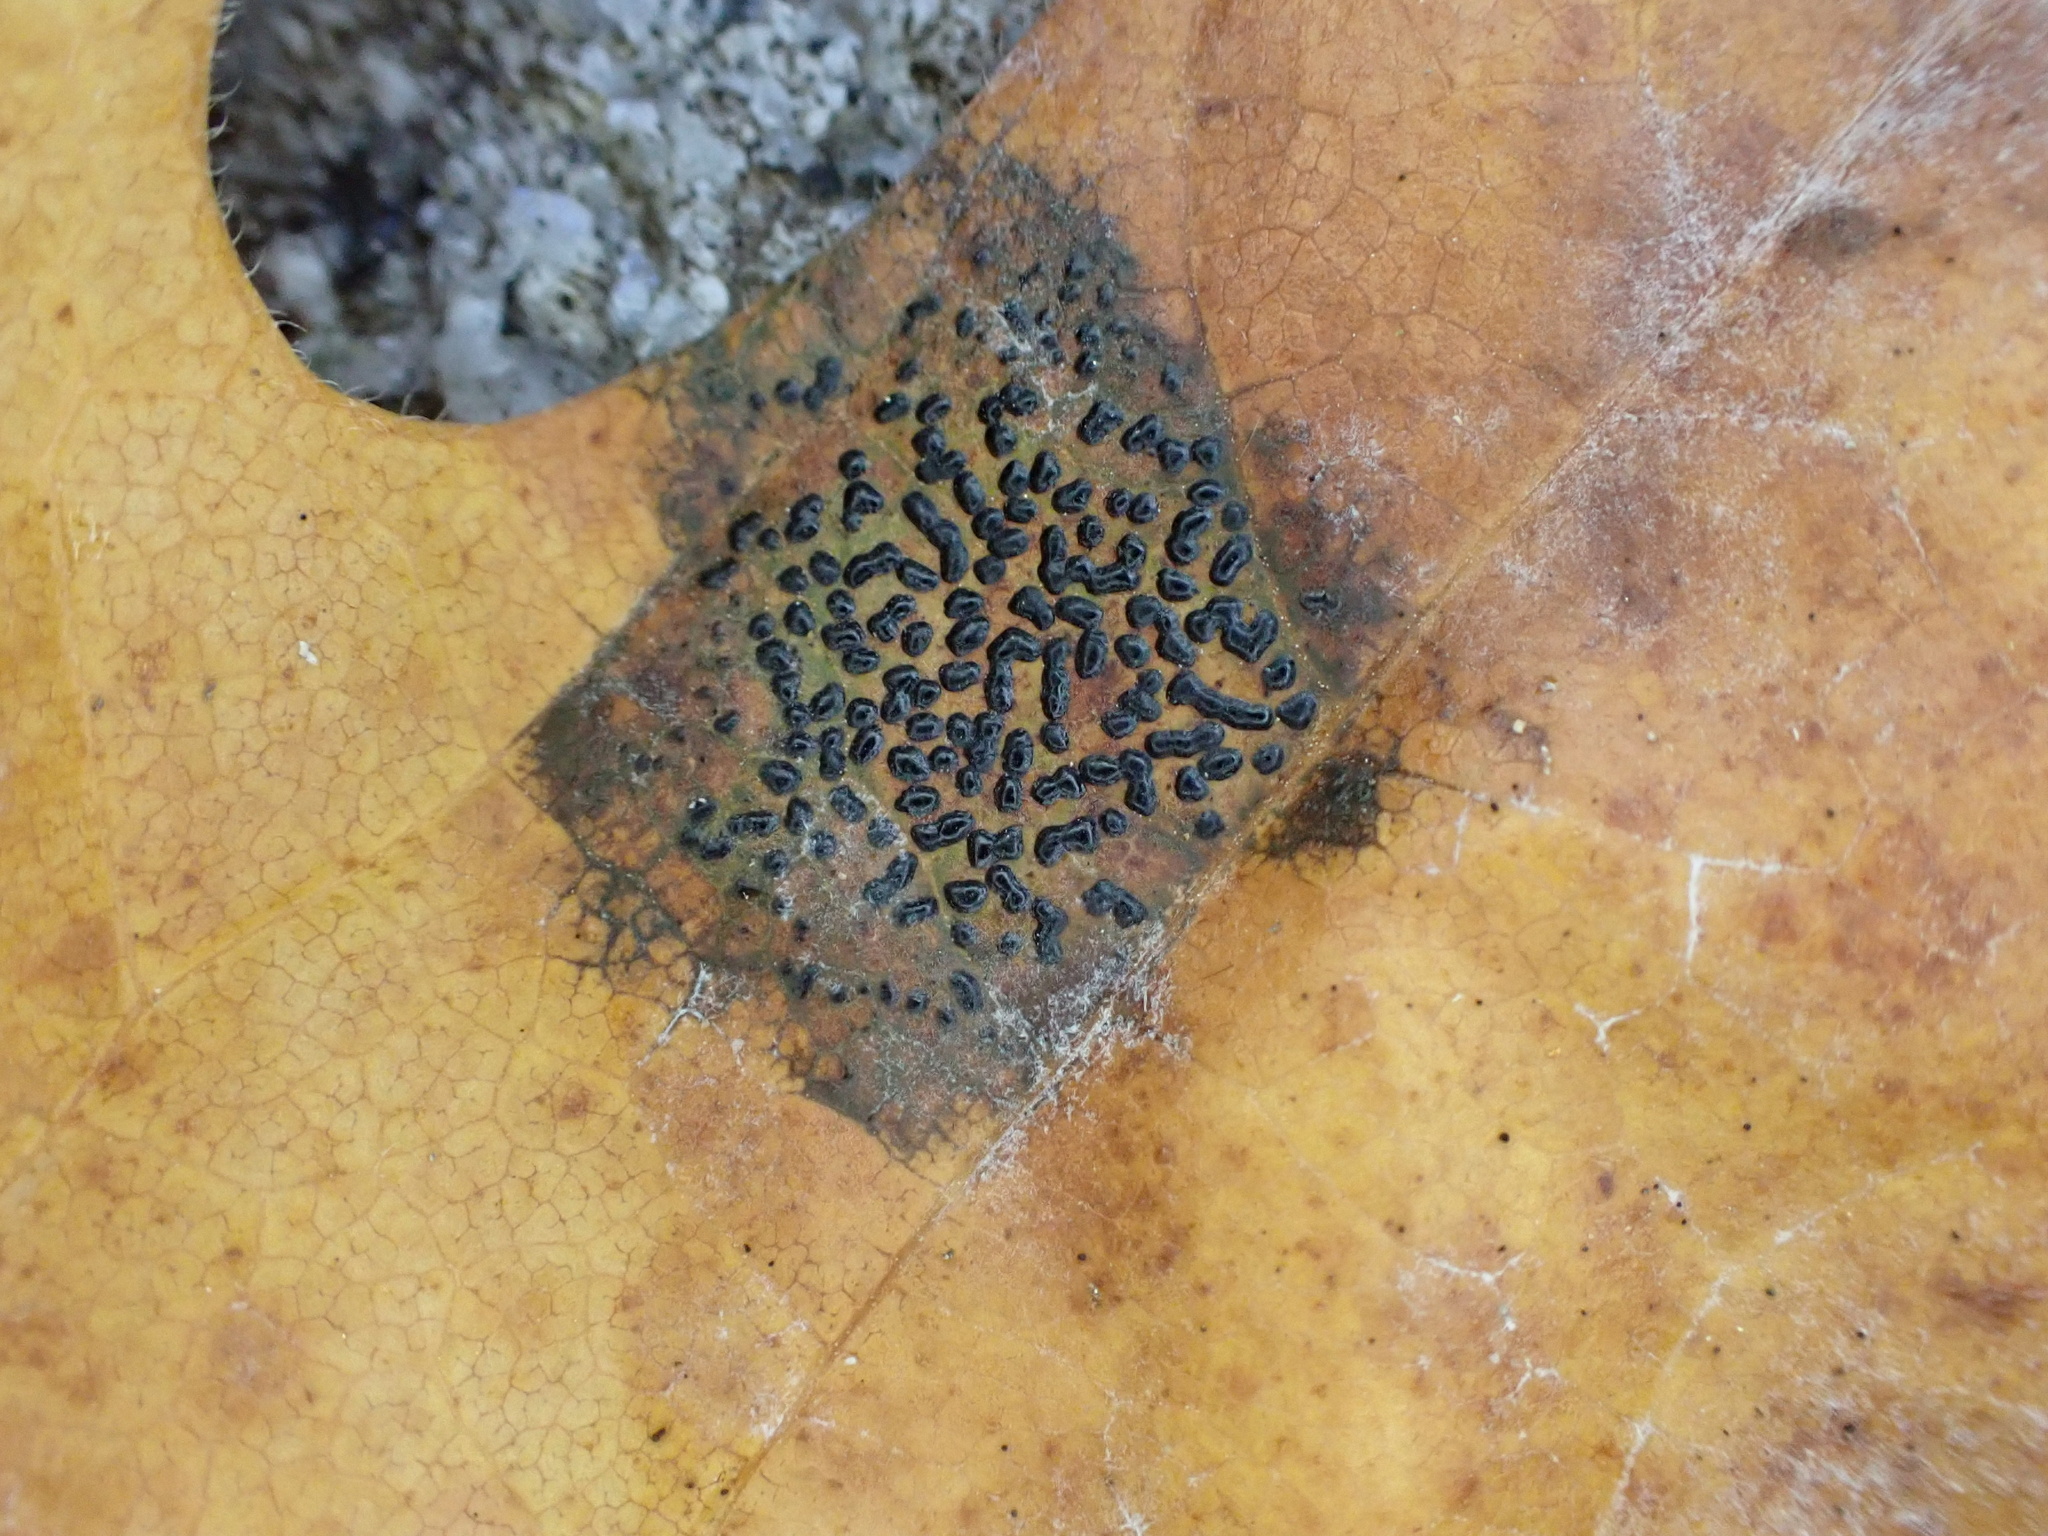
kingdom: Fungi
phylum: Ascomycota
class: Leotiomycetes
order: Rhytismatales
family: Rhytismataceae
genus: Rhytisma
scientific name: Rhytisma punctatum
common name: Speckled tar spot
